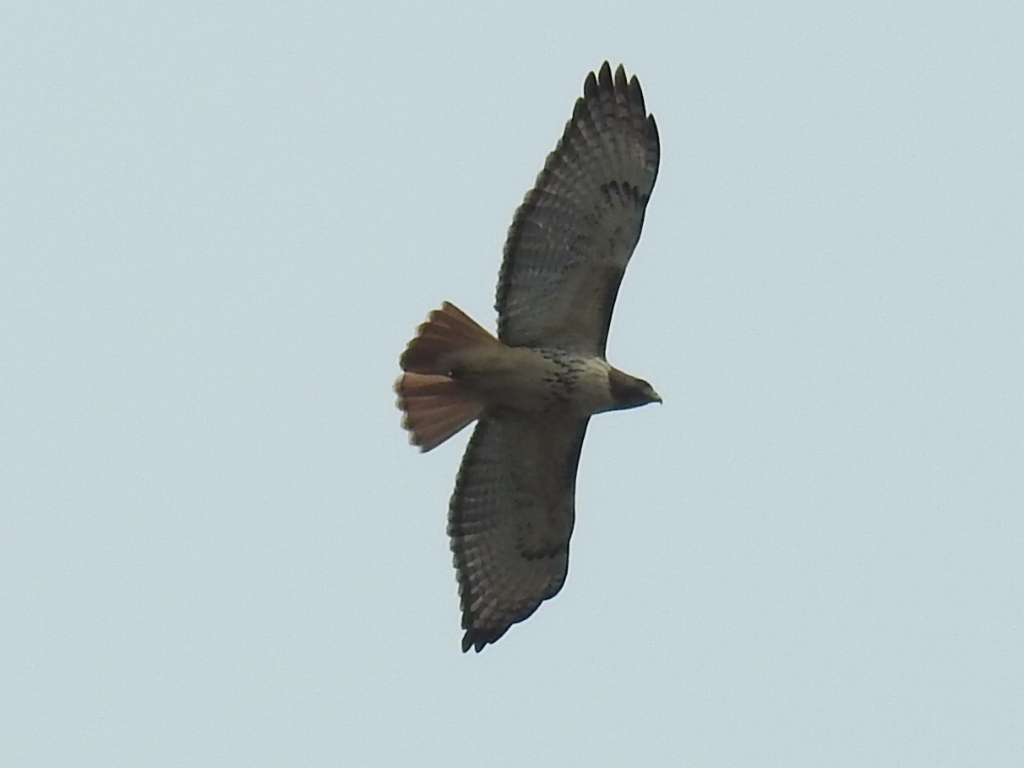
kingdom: Animalia
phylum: Chordata
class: Aves
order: Accipitriformes
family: Accipitridae
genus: Buteo
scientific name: Buteo jamaicensis
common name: Red-tailed hawk
